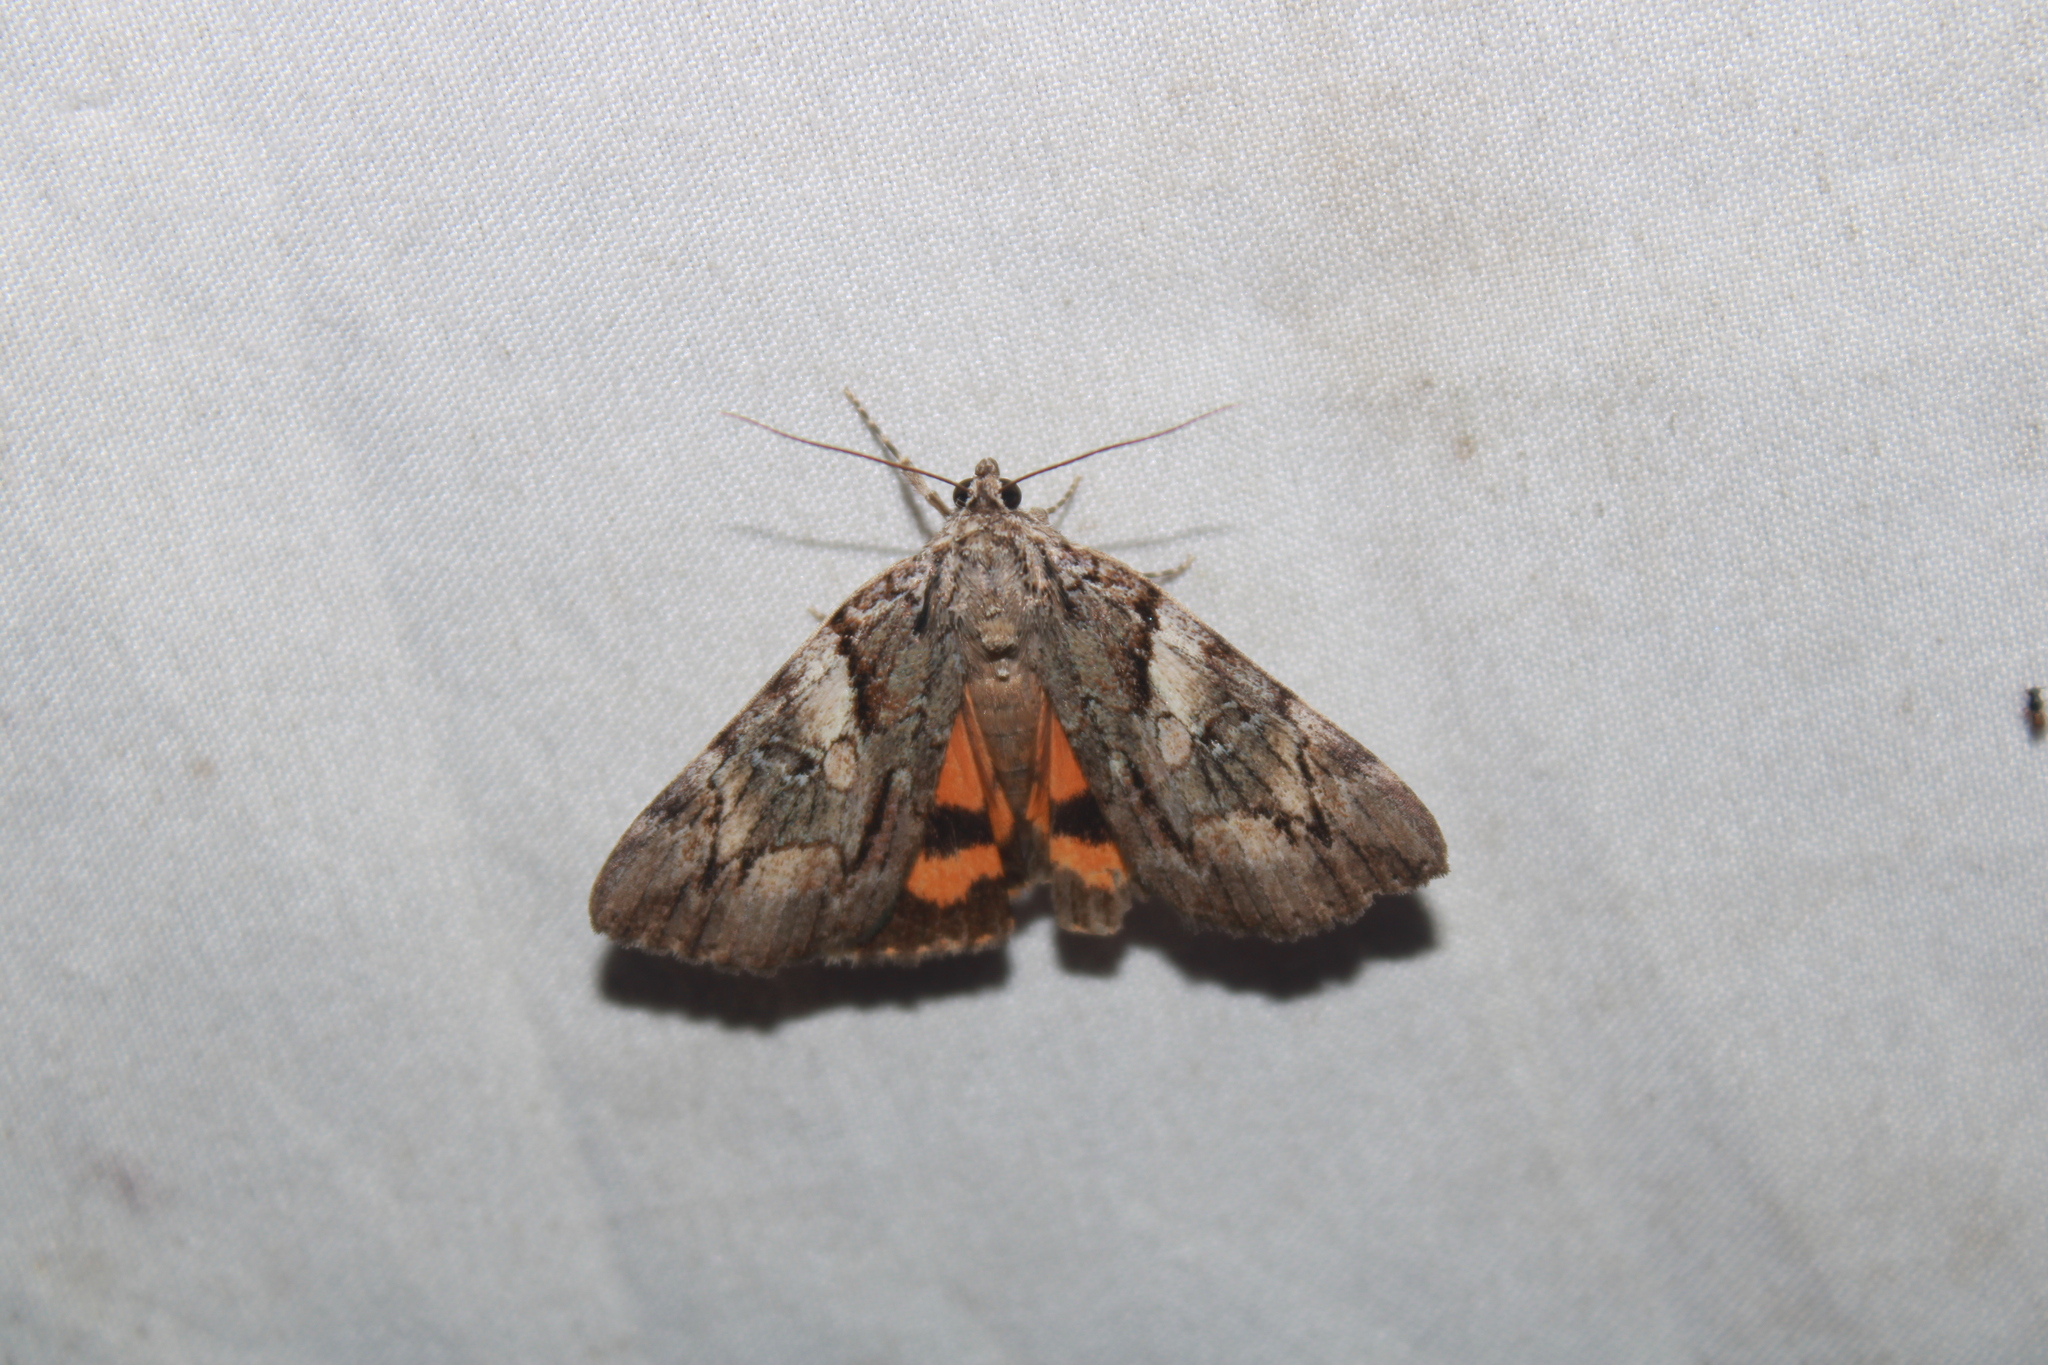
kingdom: Animalia
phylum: Arthropoda
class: Insecta
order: Lepidoptera
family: Erebidae
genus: Catocala
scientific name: Catocala blandula
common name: Charming underwing
